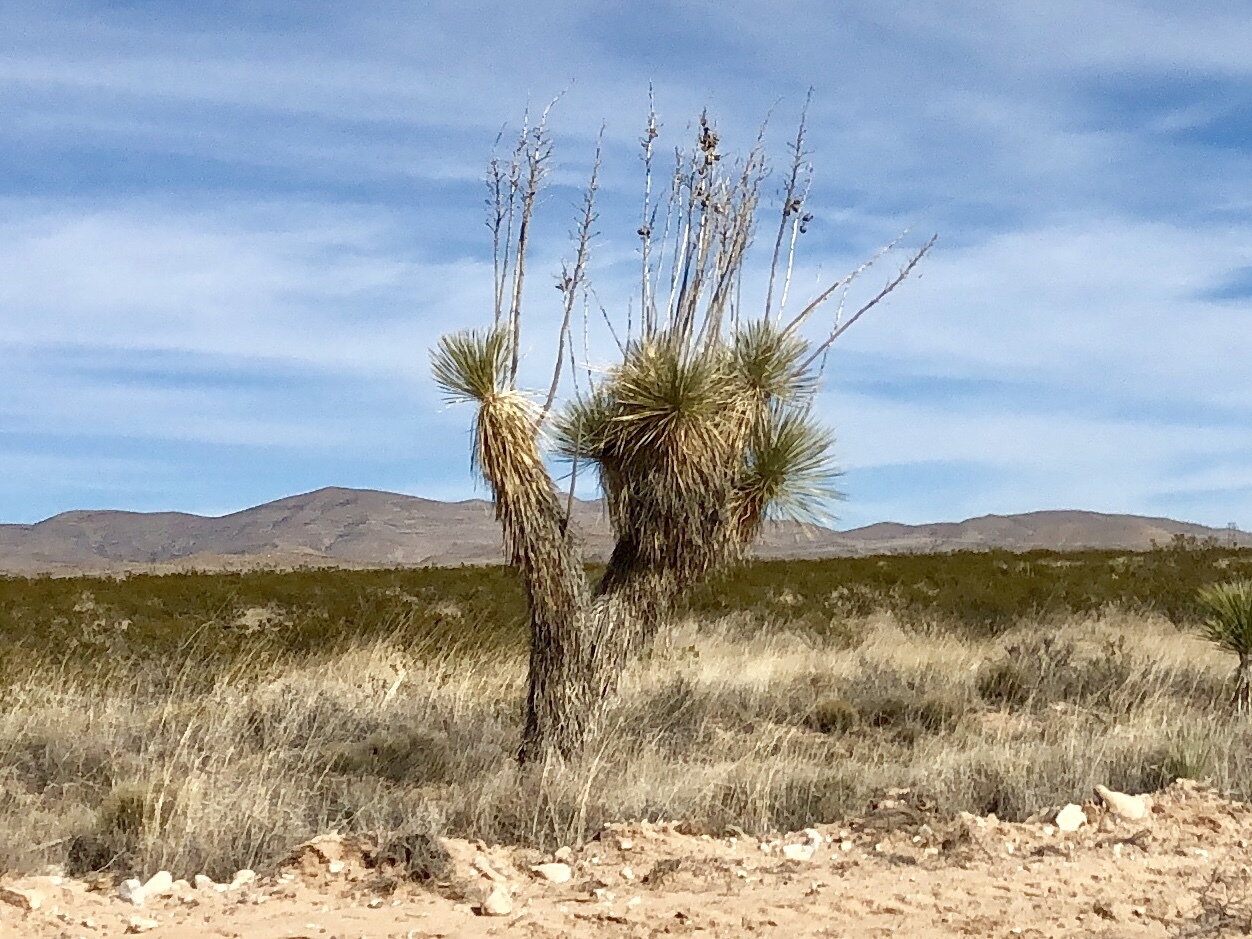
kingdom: Plantae
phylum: Tracheophyta
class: Liliopsida
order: Asparagales
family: Asparagaceae
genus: Yucca
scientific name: Yucca elata
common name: Palmella
